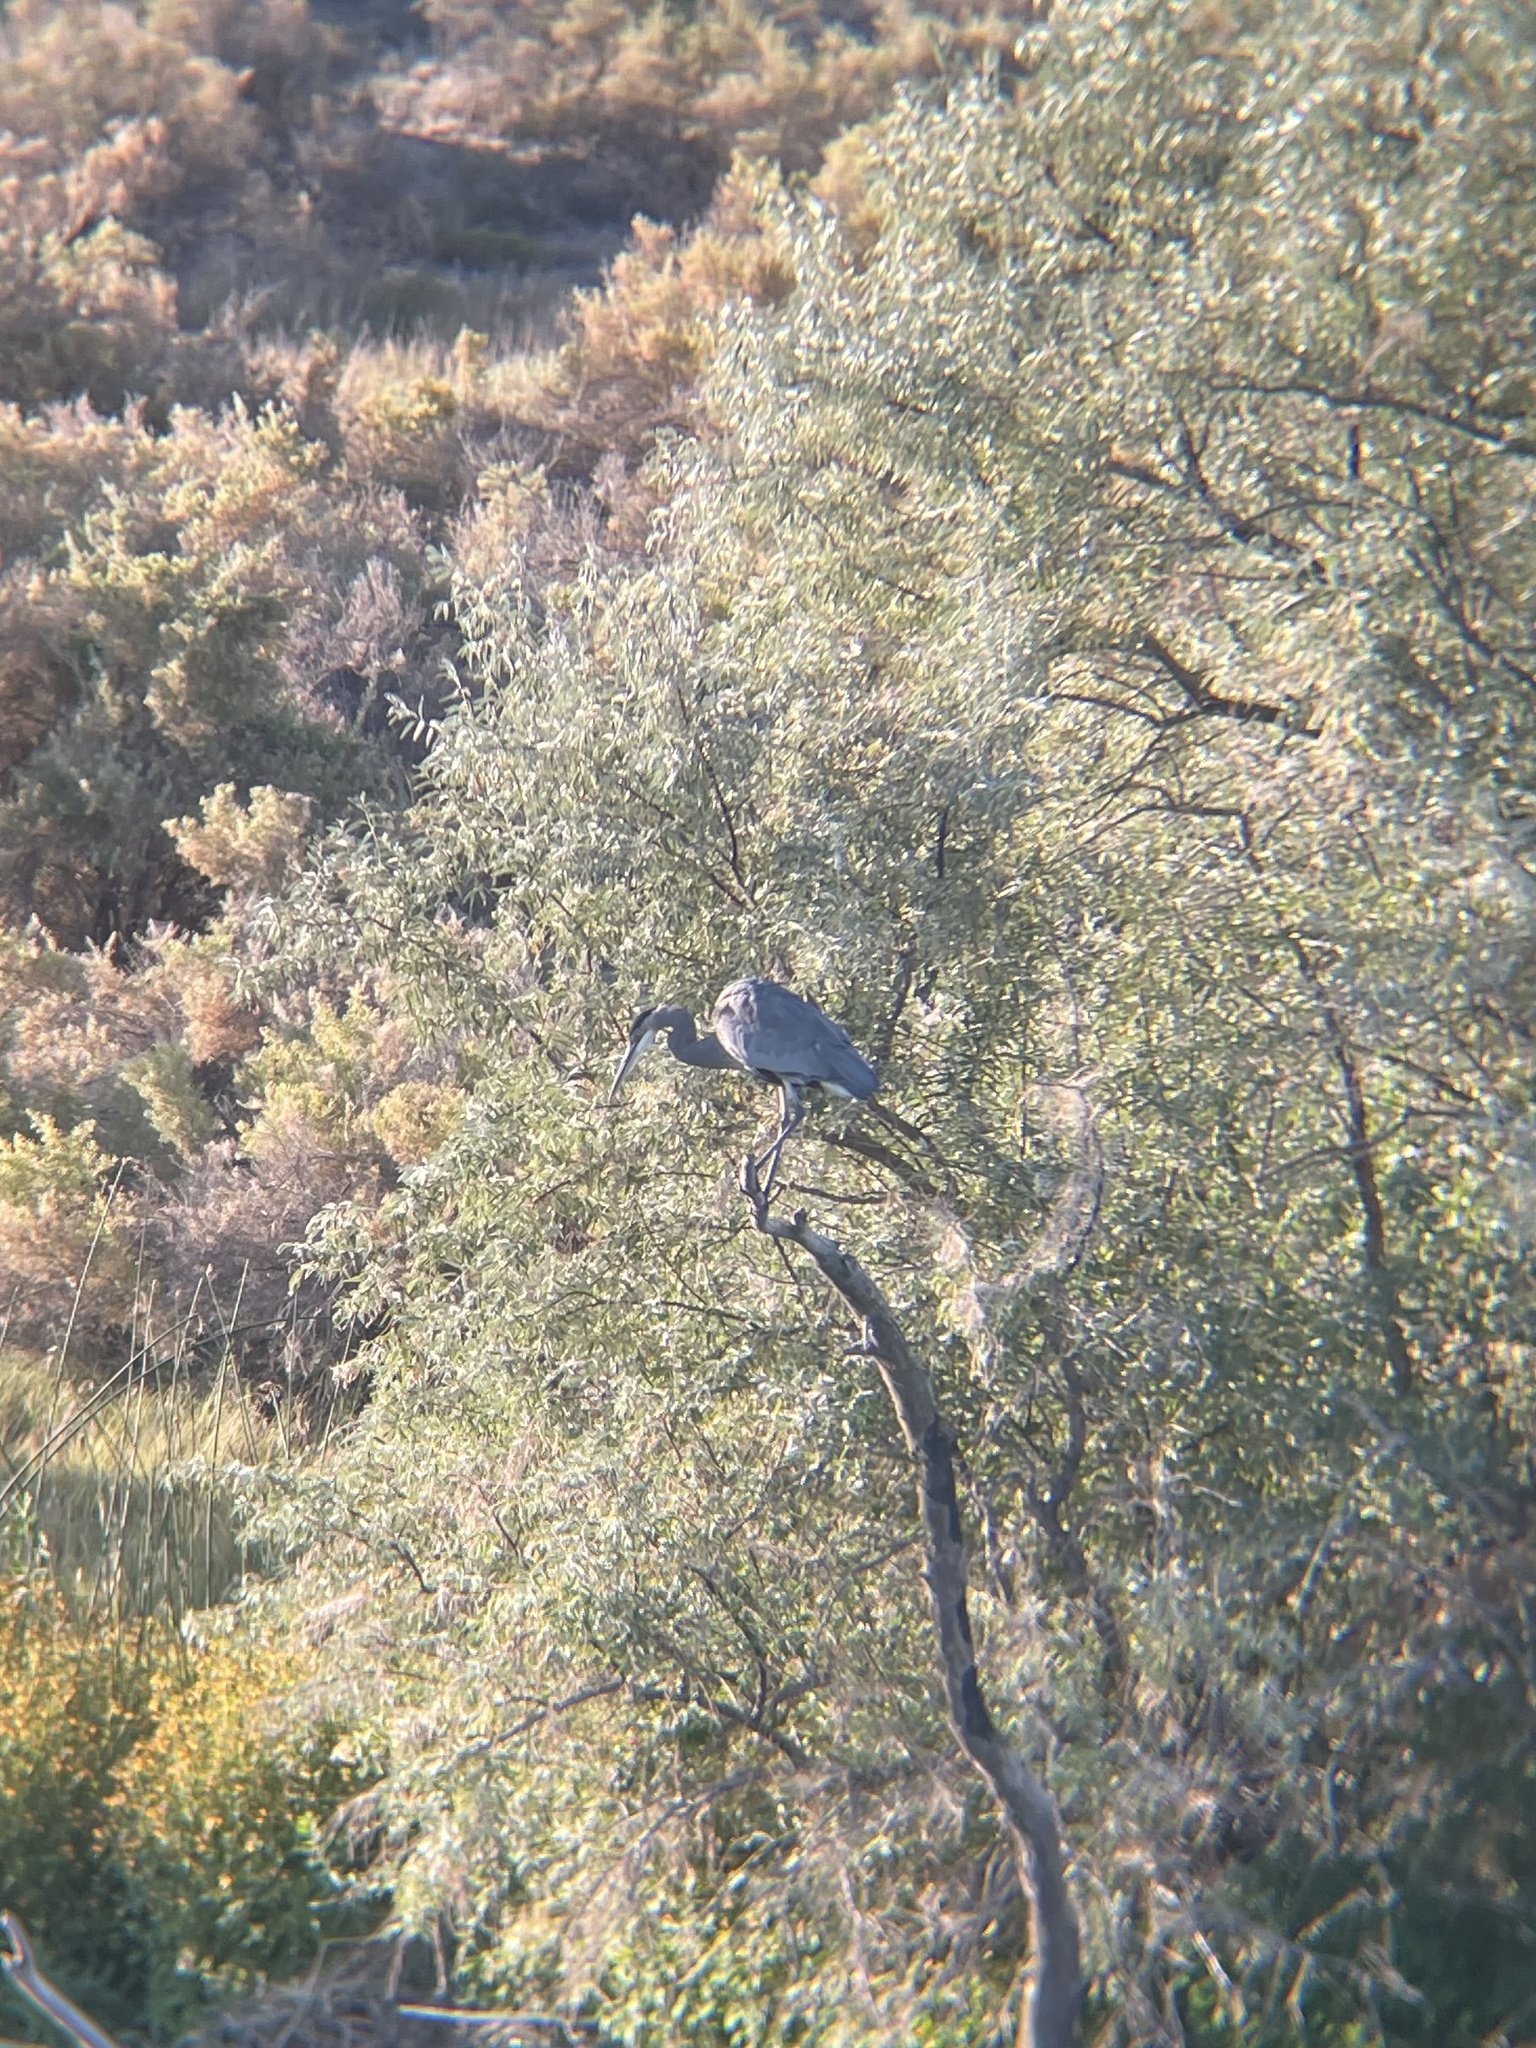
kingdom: Animalia
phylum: Chordata
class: Aves
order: Pelecaniformes
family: Ardeidae
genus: Ardea
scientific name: Ardea herodias
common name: Great blue heron
